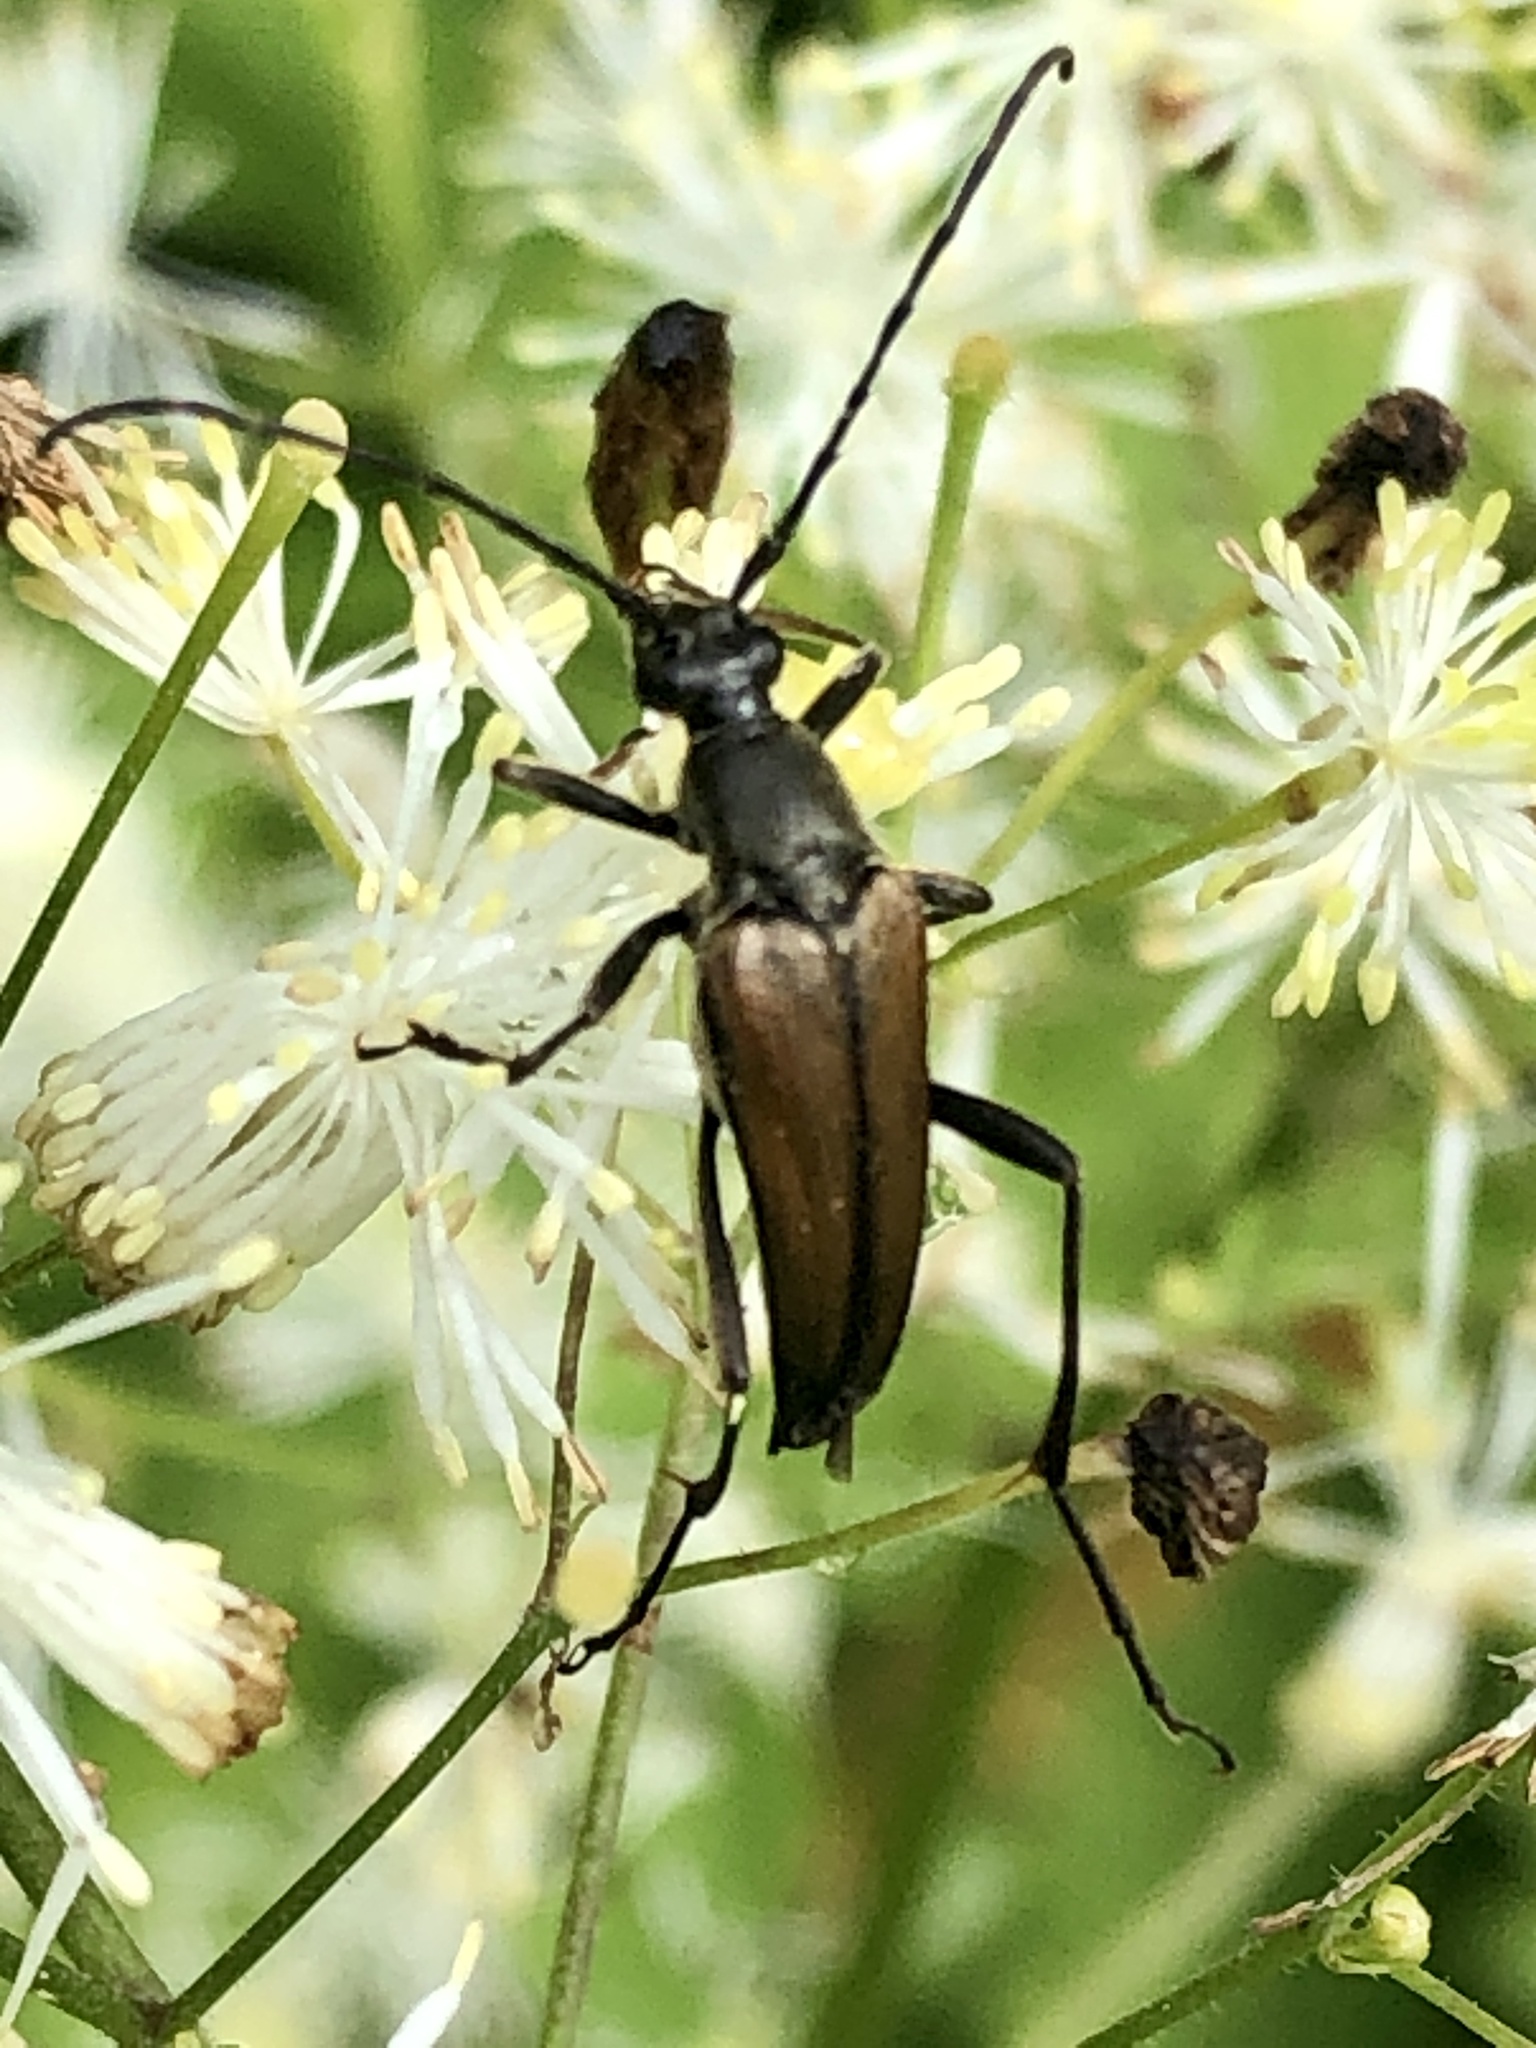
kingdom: Animalia
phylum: Arthropoda
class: Insecta
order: Coleoptera
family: Cerambycidae
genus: Etorofus
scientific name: Etorofus
